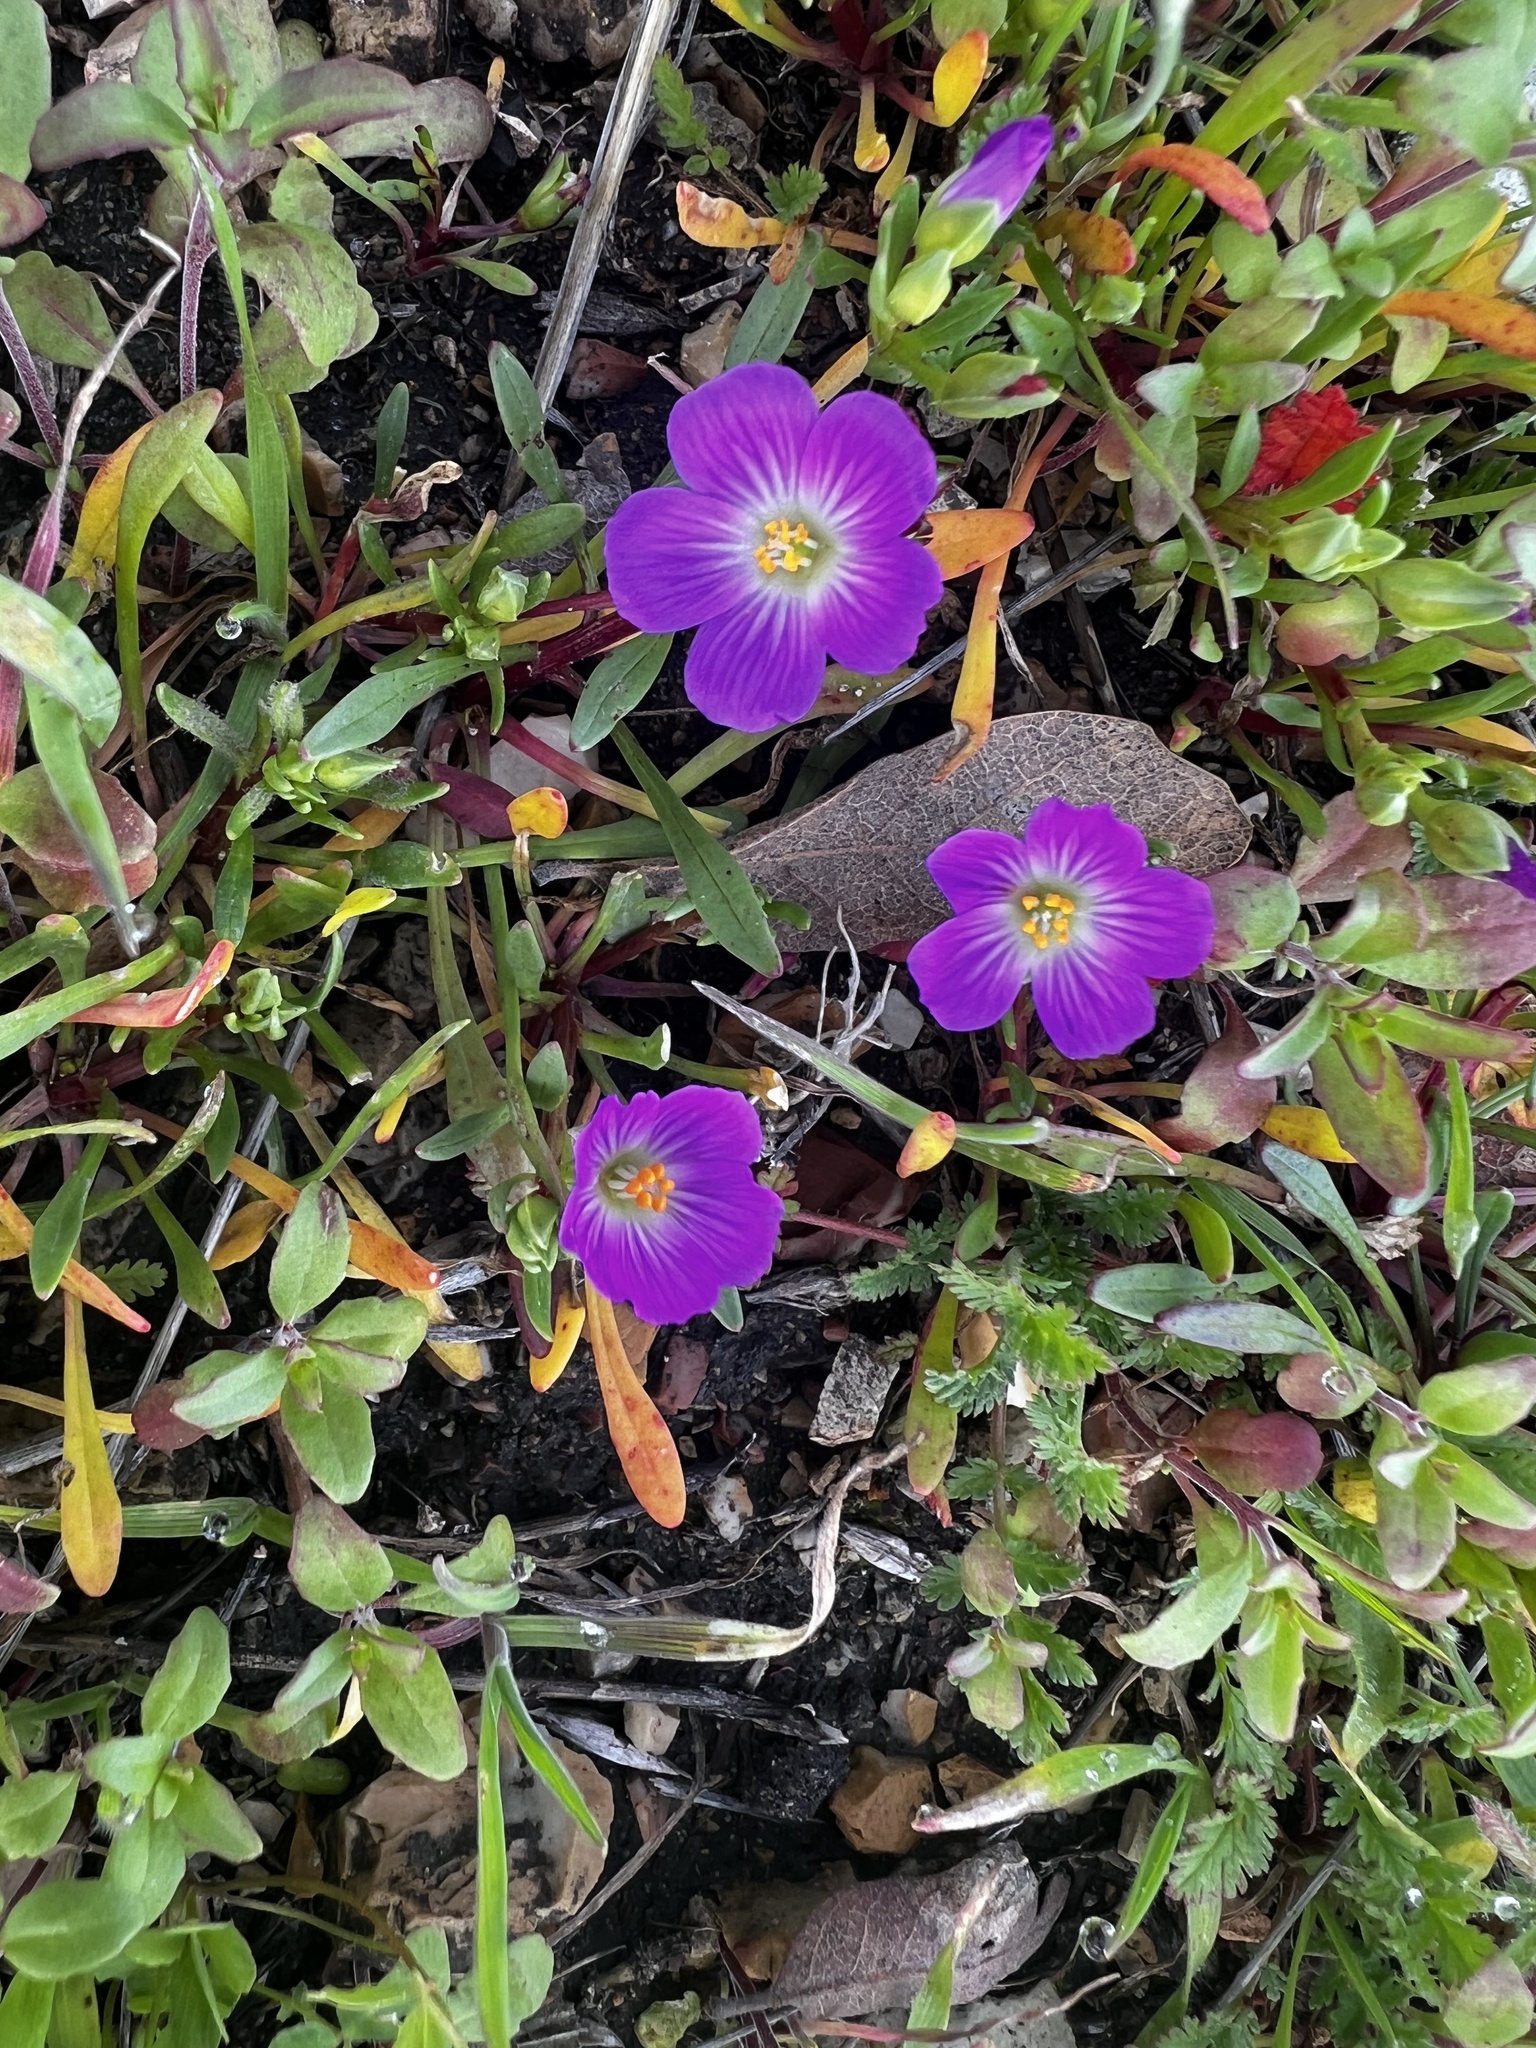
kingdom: Plantae
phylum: Tracheophyta
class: Magnoliopsida
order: Caryophyllales
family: Montiaceae
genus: Calandrinia
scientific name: Calandrinia menziesii
